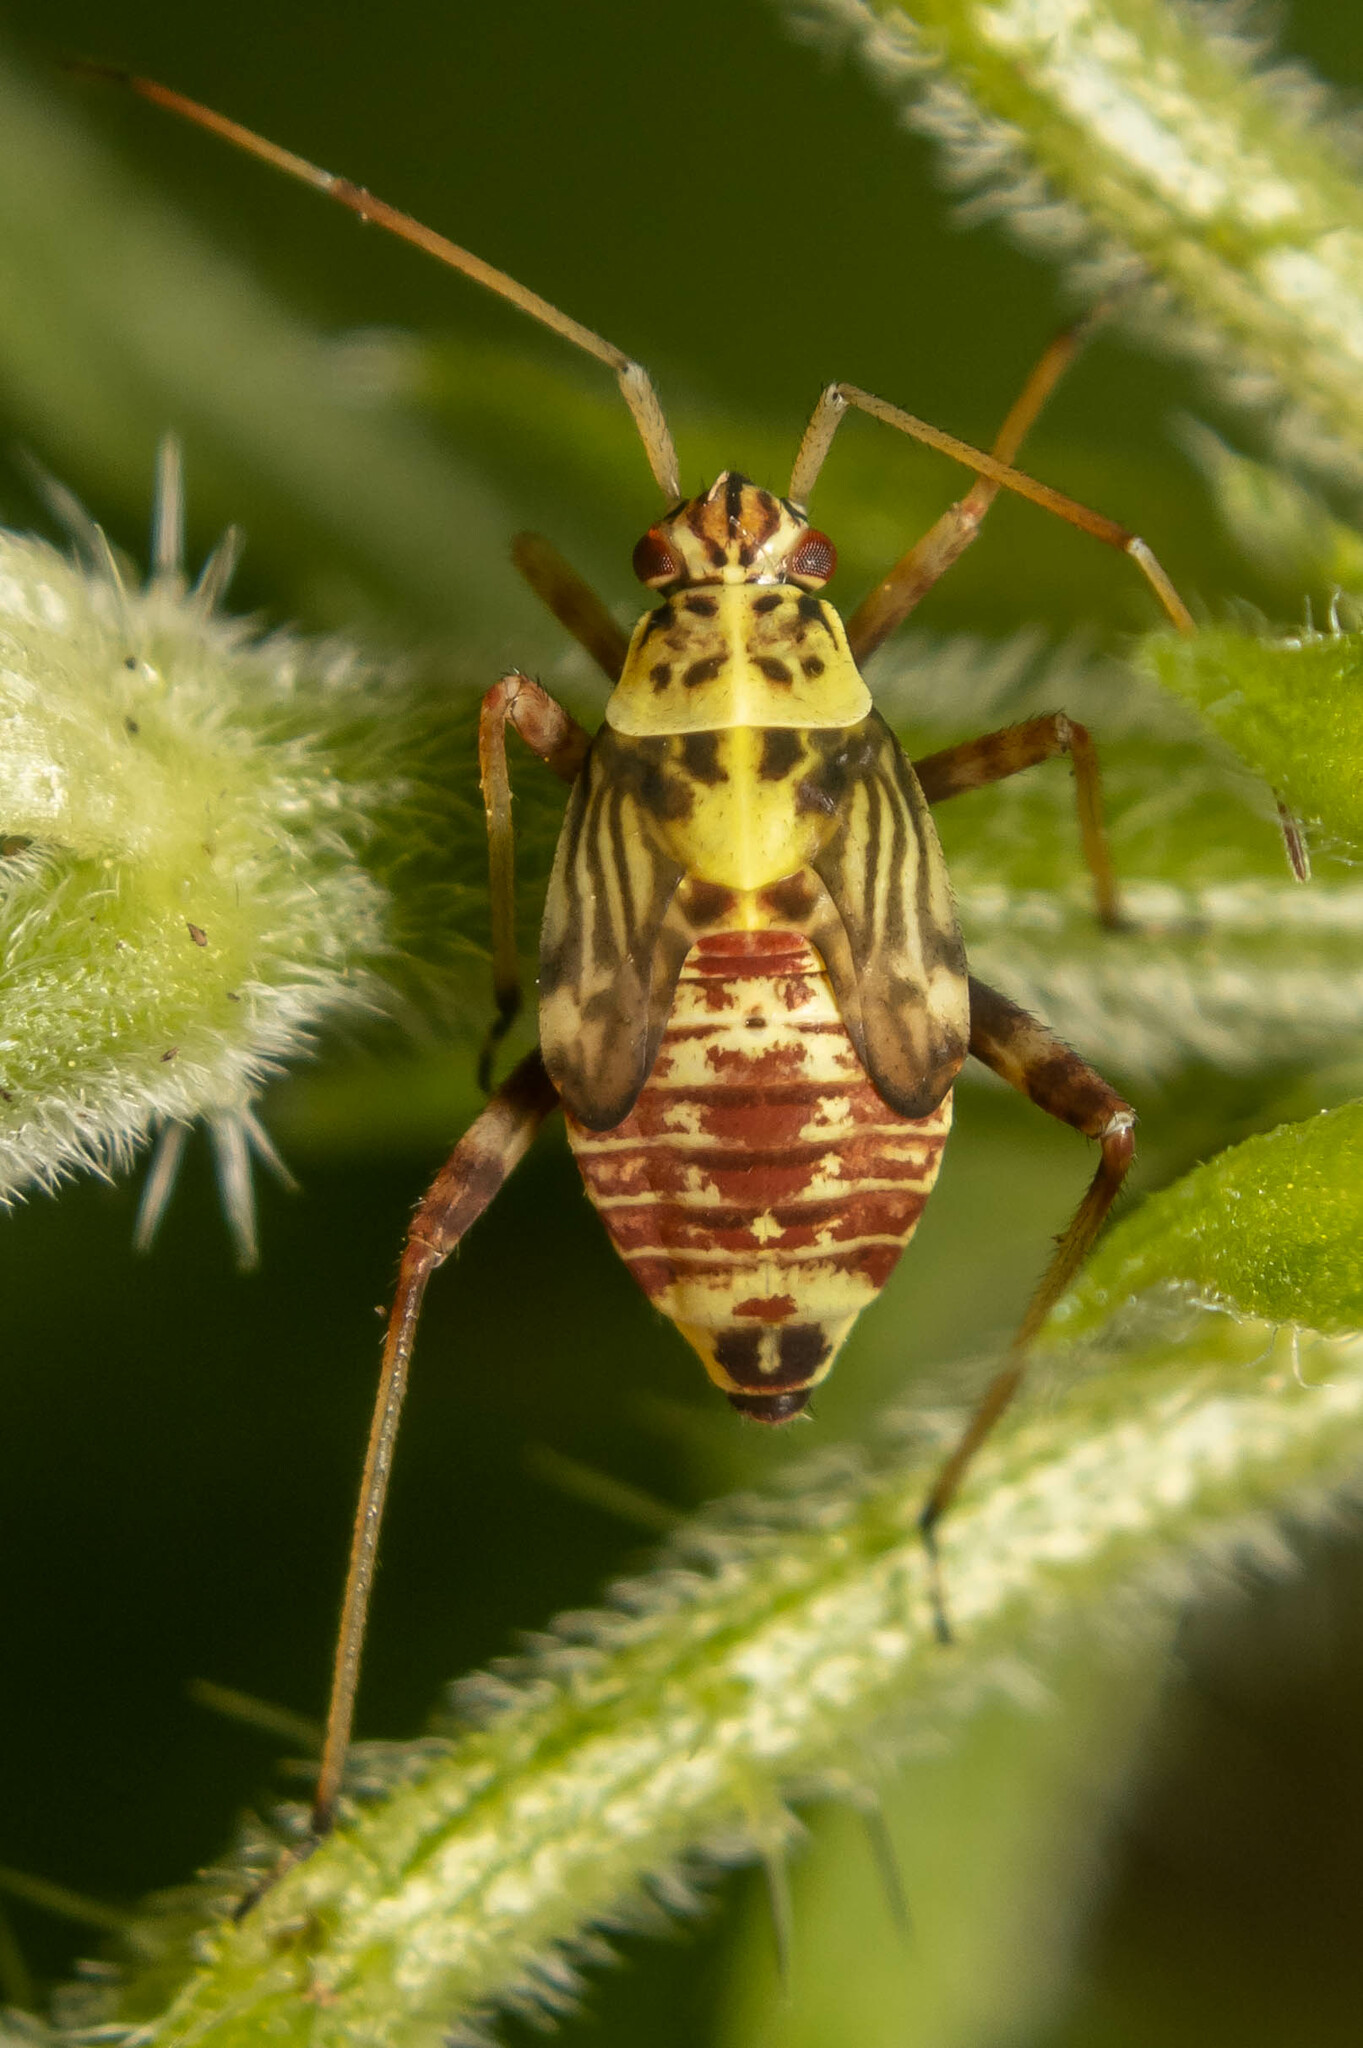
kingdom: Animalia
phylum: Arthropoda
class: Insecta
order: Hemiptera
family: Miridae
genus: Rhabdomiris
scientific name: Rhabdomiris striatellus
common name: Plant bug
